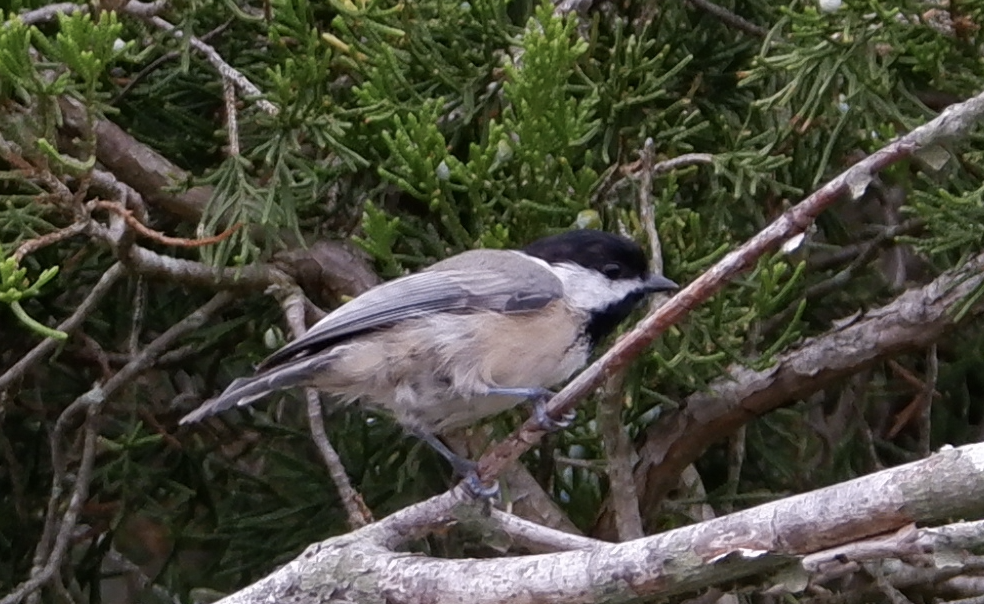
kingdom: Animalia
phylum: Chordata
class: Aves
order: Passeriformes
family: Paridae
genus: Poecile
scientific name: Poecile atricapillus
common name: Black-capped chickadee
